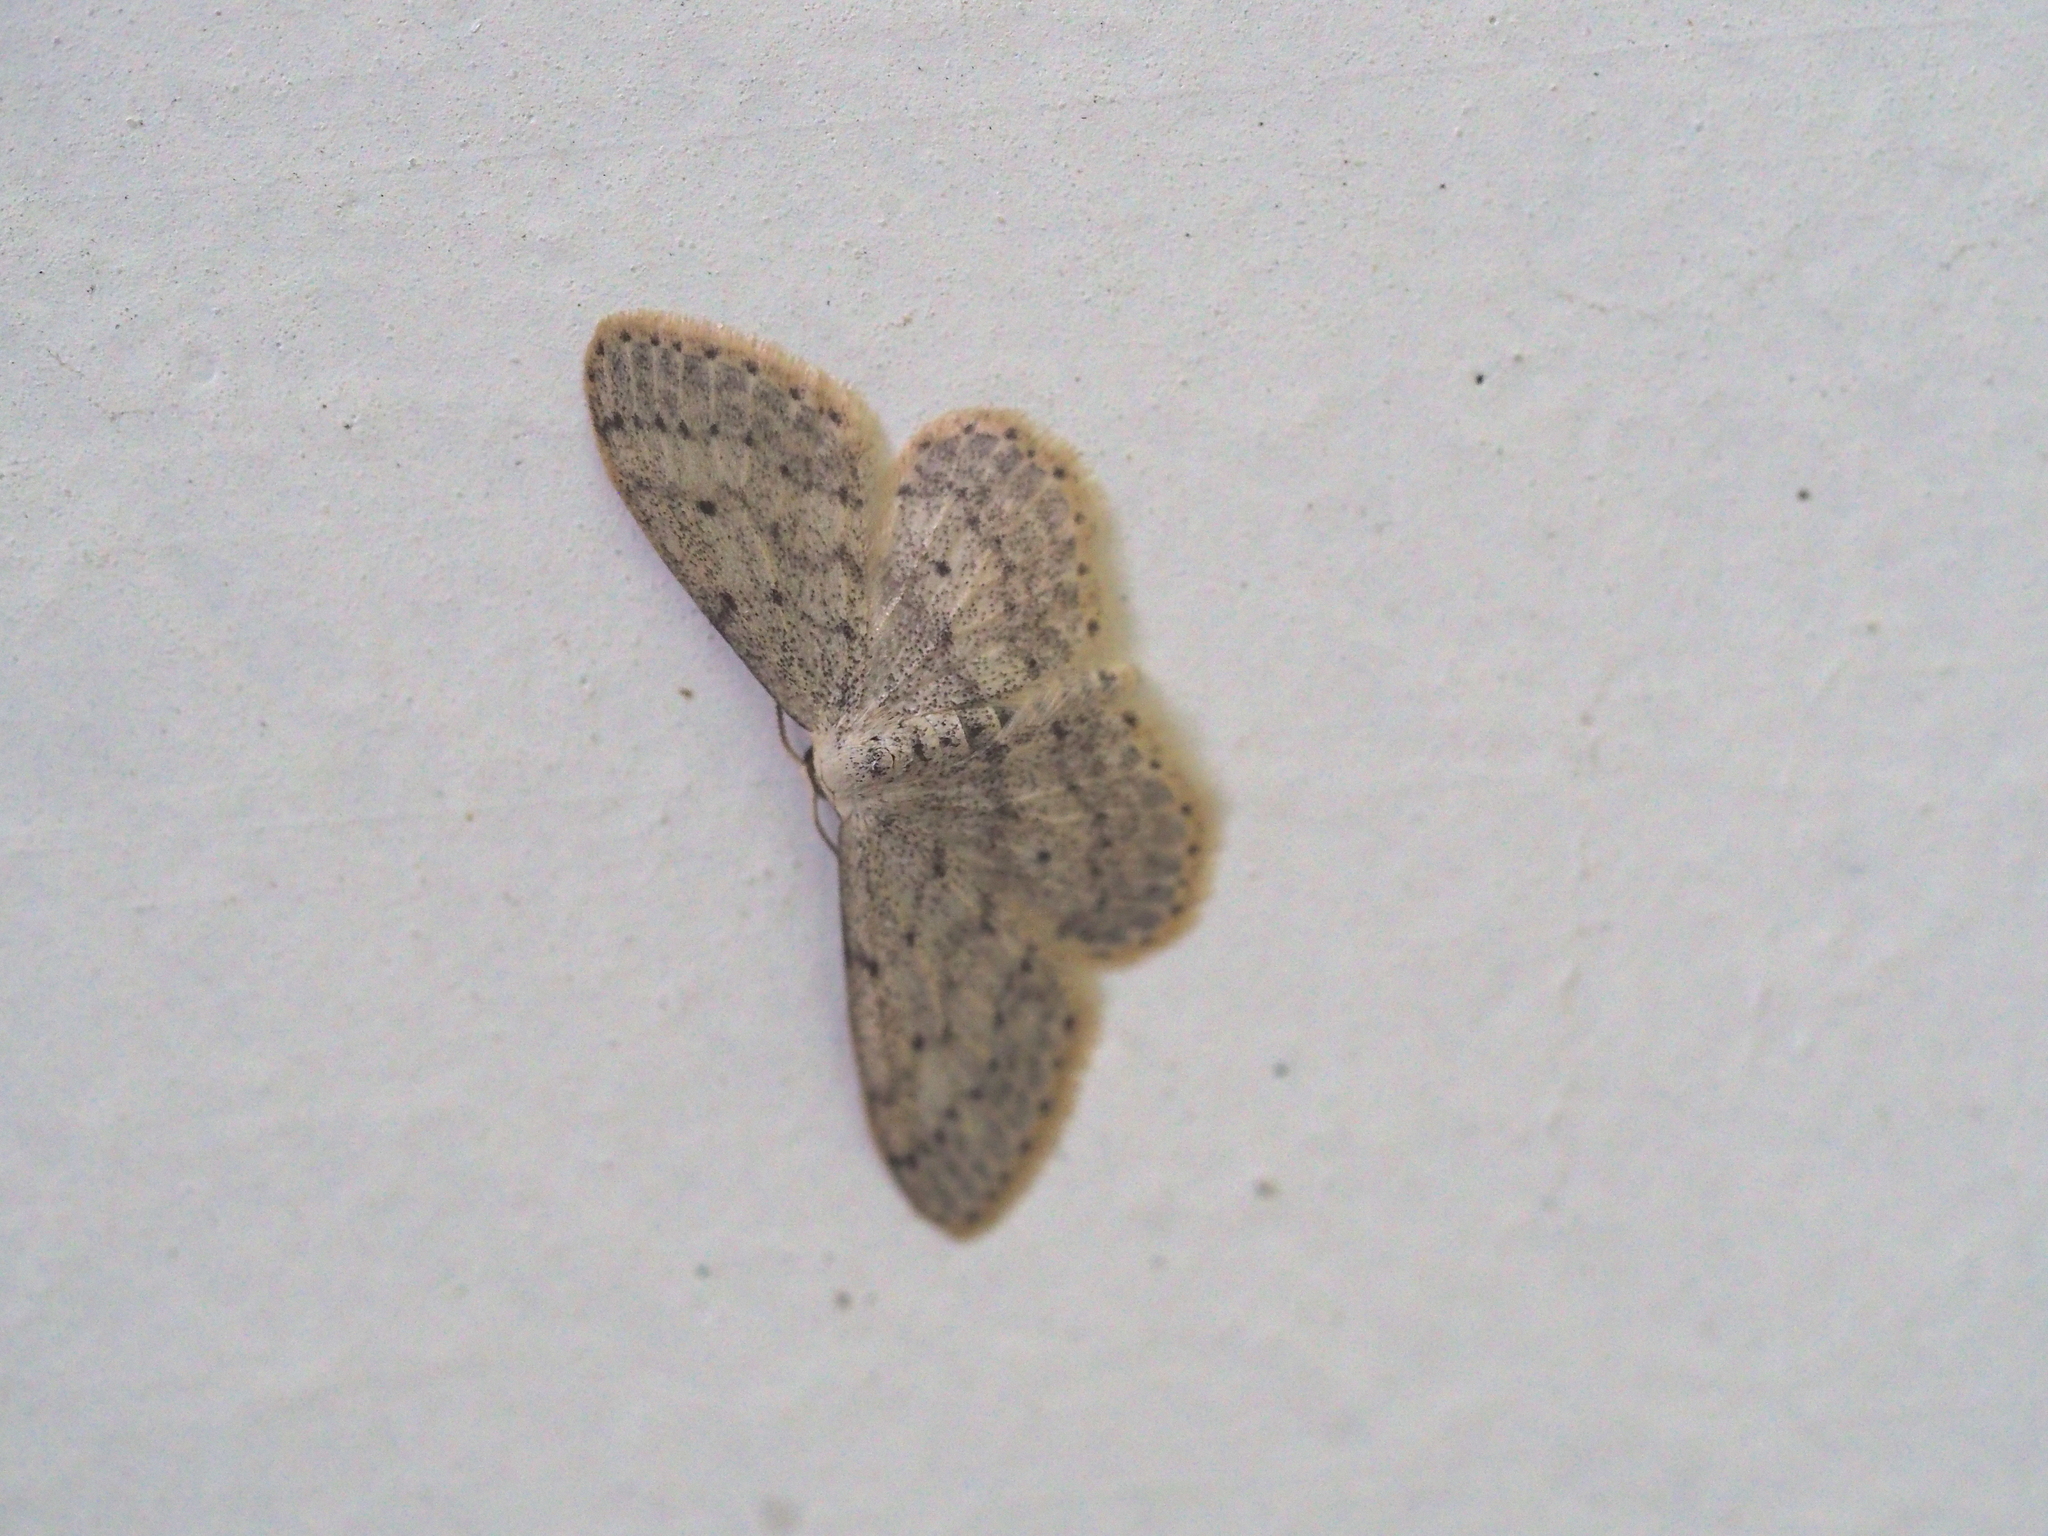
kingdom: Animalia
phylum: Arthropoda
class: Insecta
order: Lepidoptera
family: Geometridae
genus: Idaea
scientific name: Idaea seriata
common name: Small dusty wave
